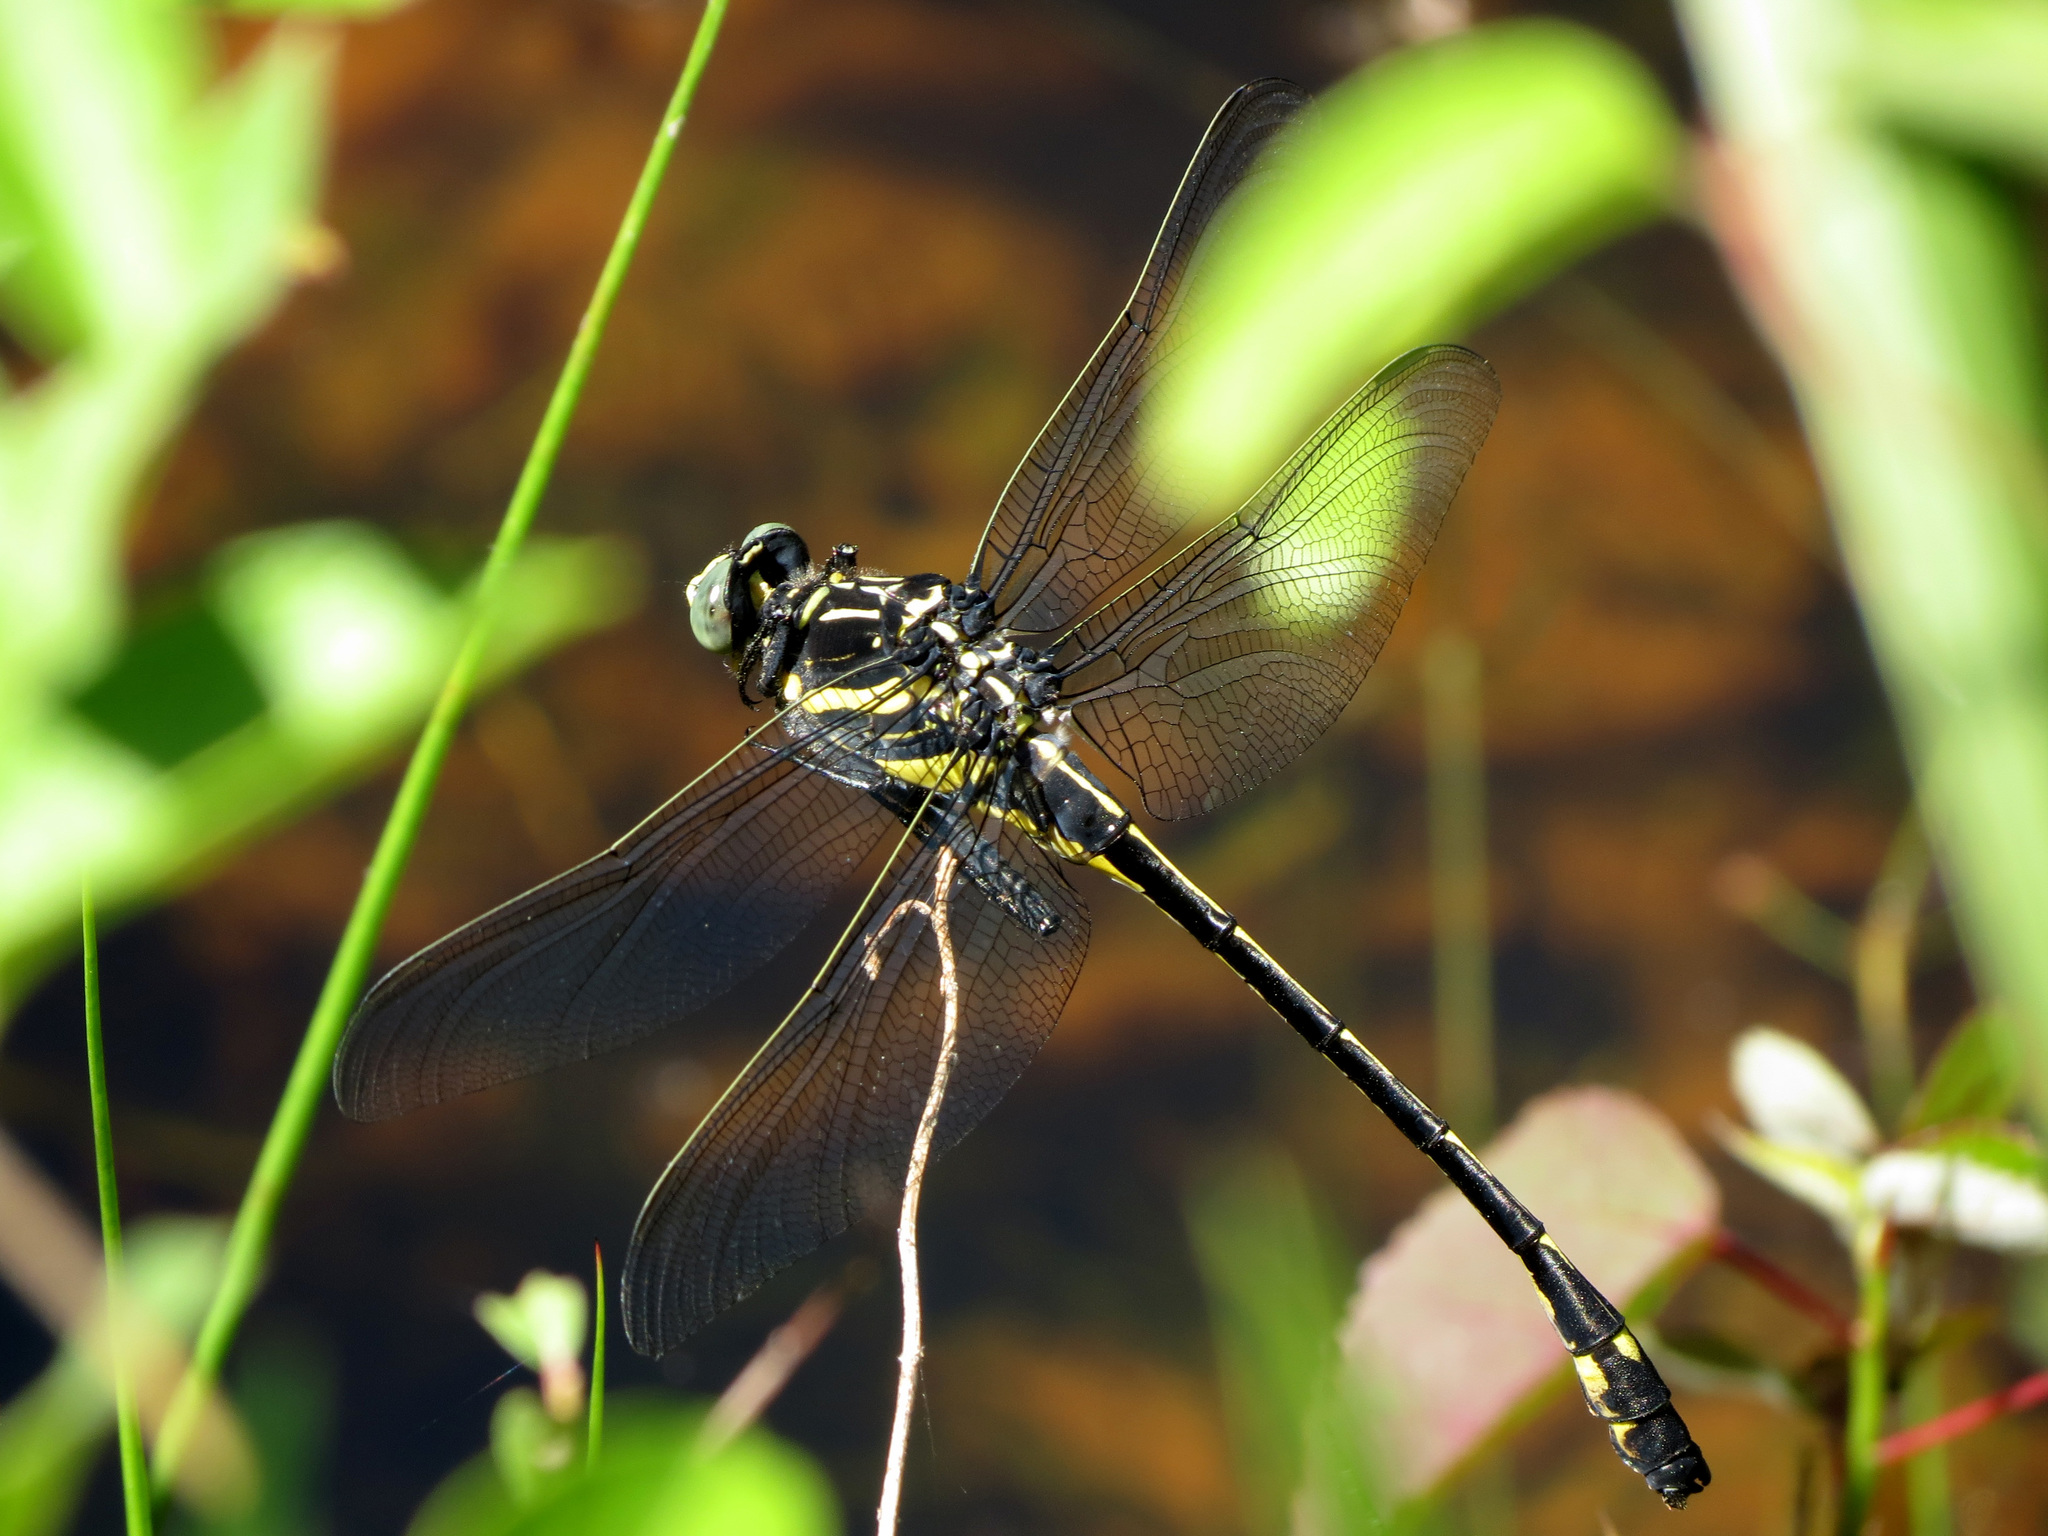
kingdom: Animalia
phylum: Arthropoda
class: Insecta
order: Odonata
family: Gomphidae
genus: Hagenius
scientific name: Hagenius brevistylus
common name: Dragonhunter
